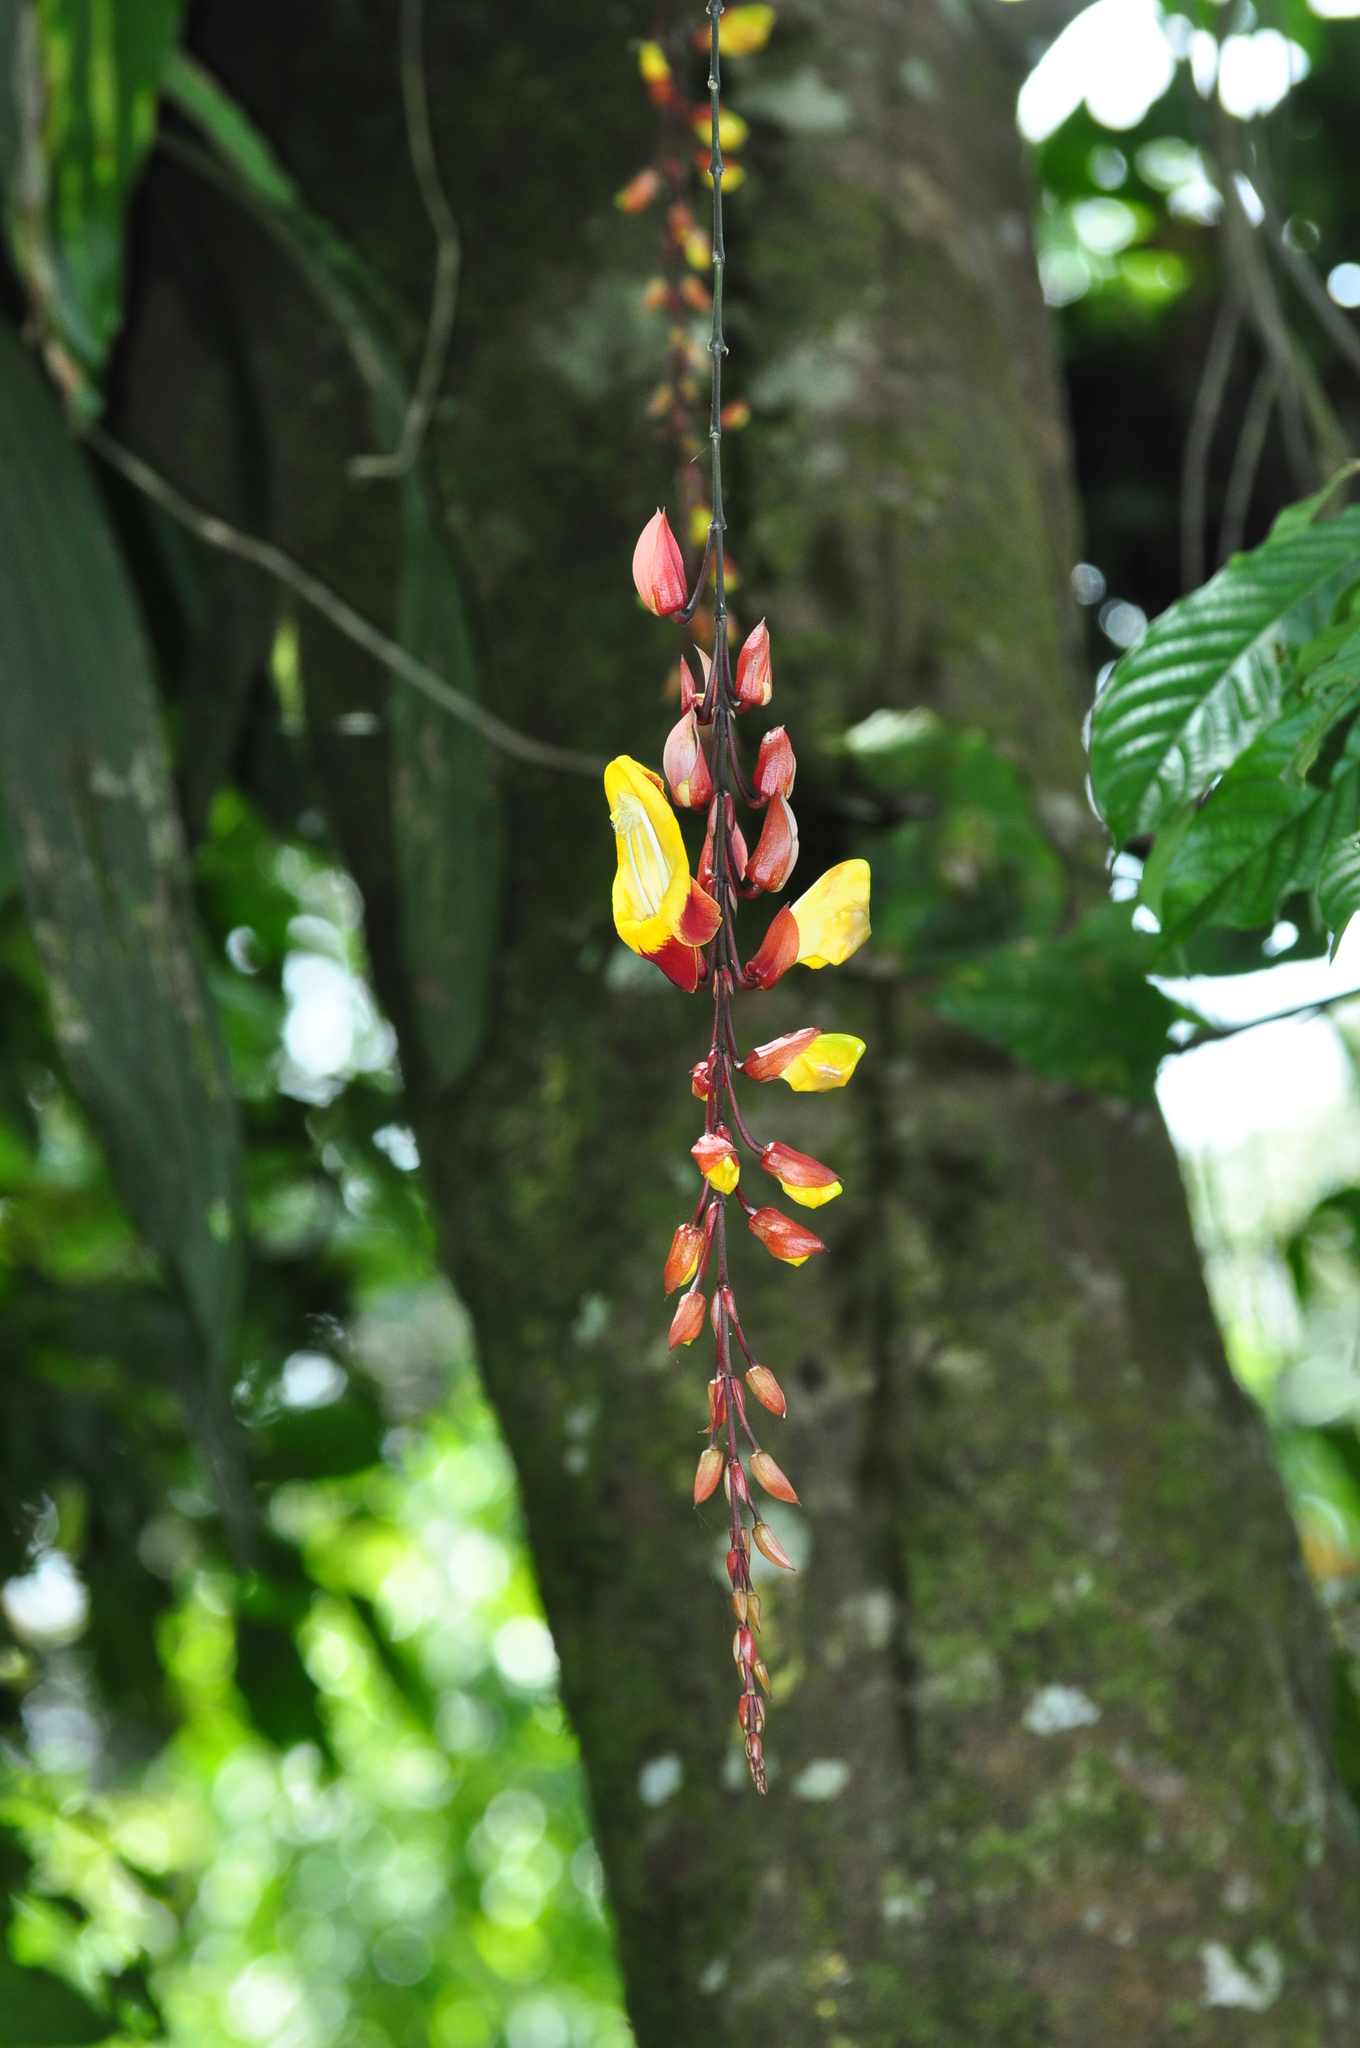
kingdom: Plantae
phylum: Tracheophyta
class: Magnoliopsida
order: Lamiales
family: Acanthaceae
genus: Thunbergia
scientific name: Thunbergia mysorensis
